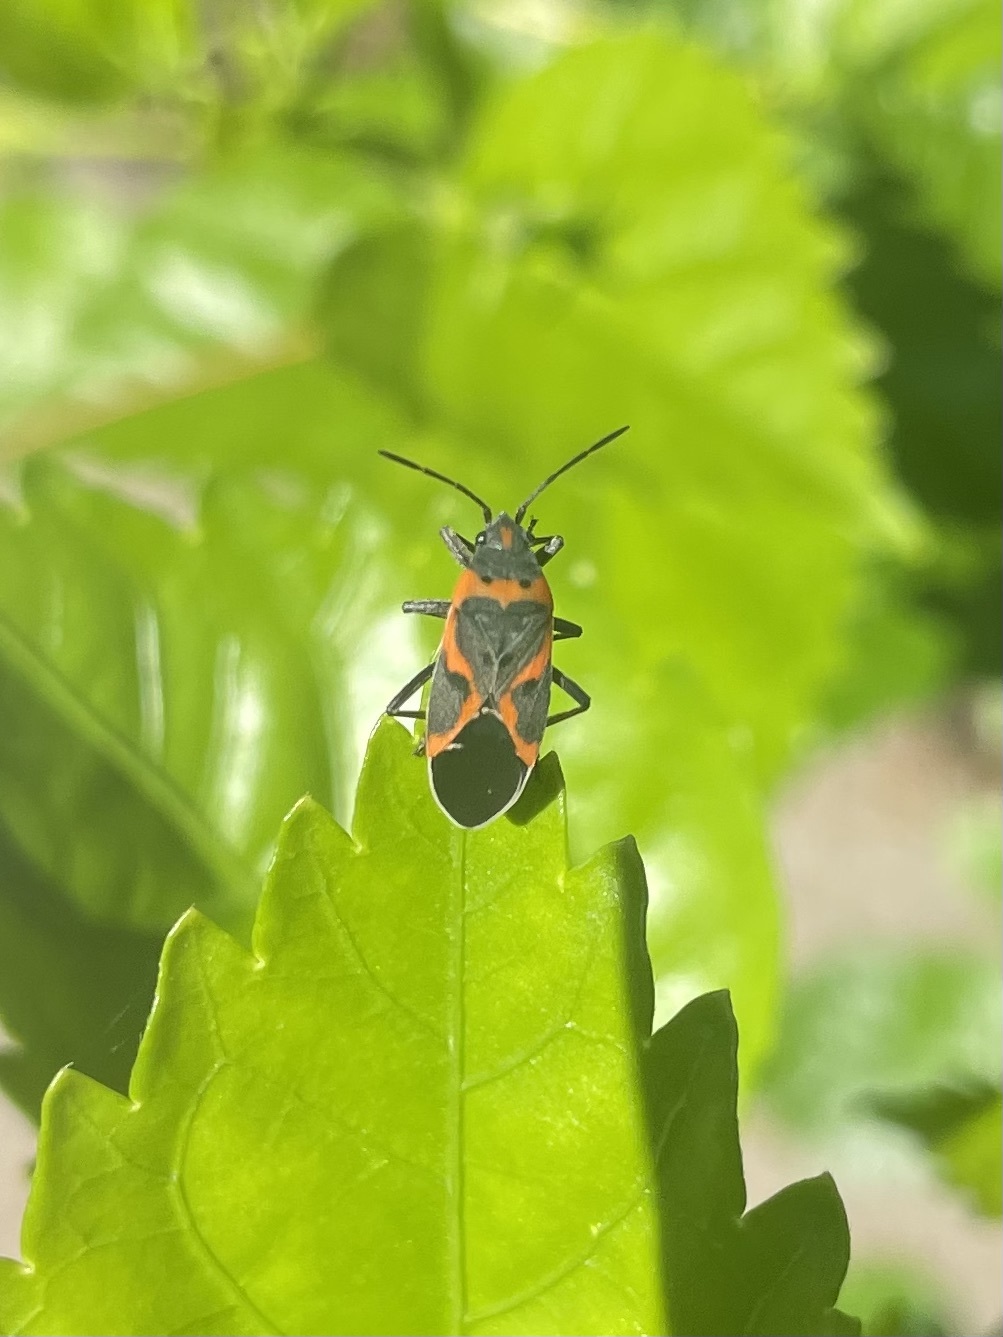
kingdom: Animalia
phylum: Arthropoda
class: Insecta
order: Hemiptera
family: Lygaeidae
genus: Lygaeus
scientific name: Lygaeus kalmii
